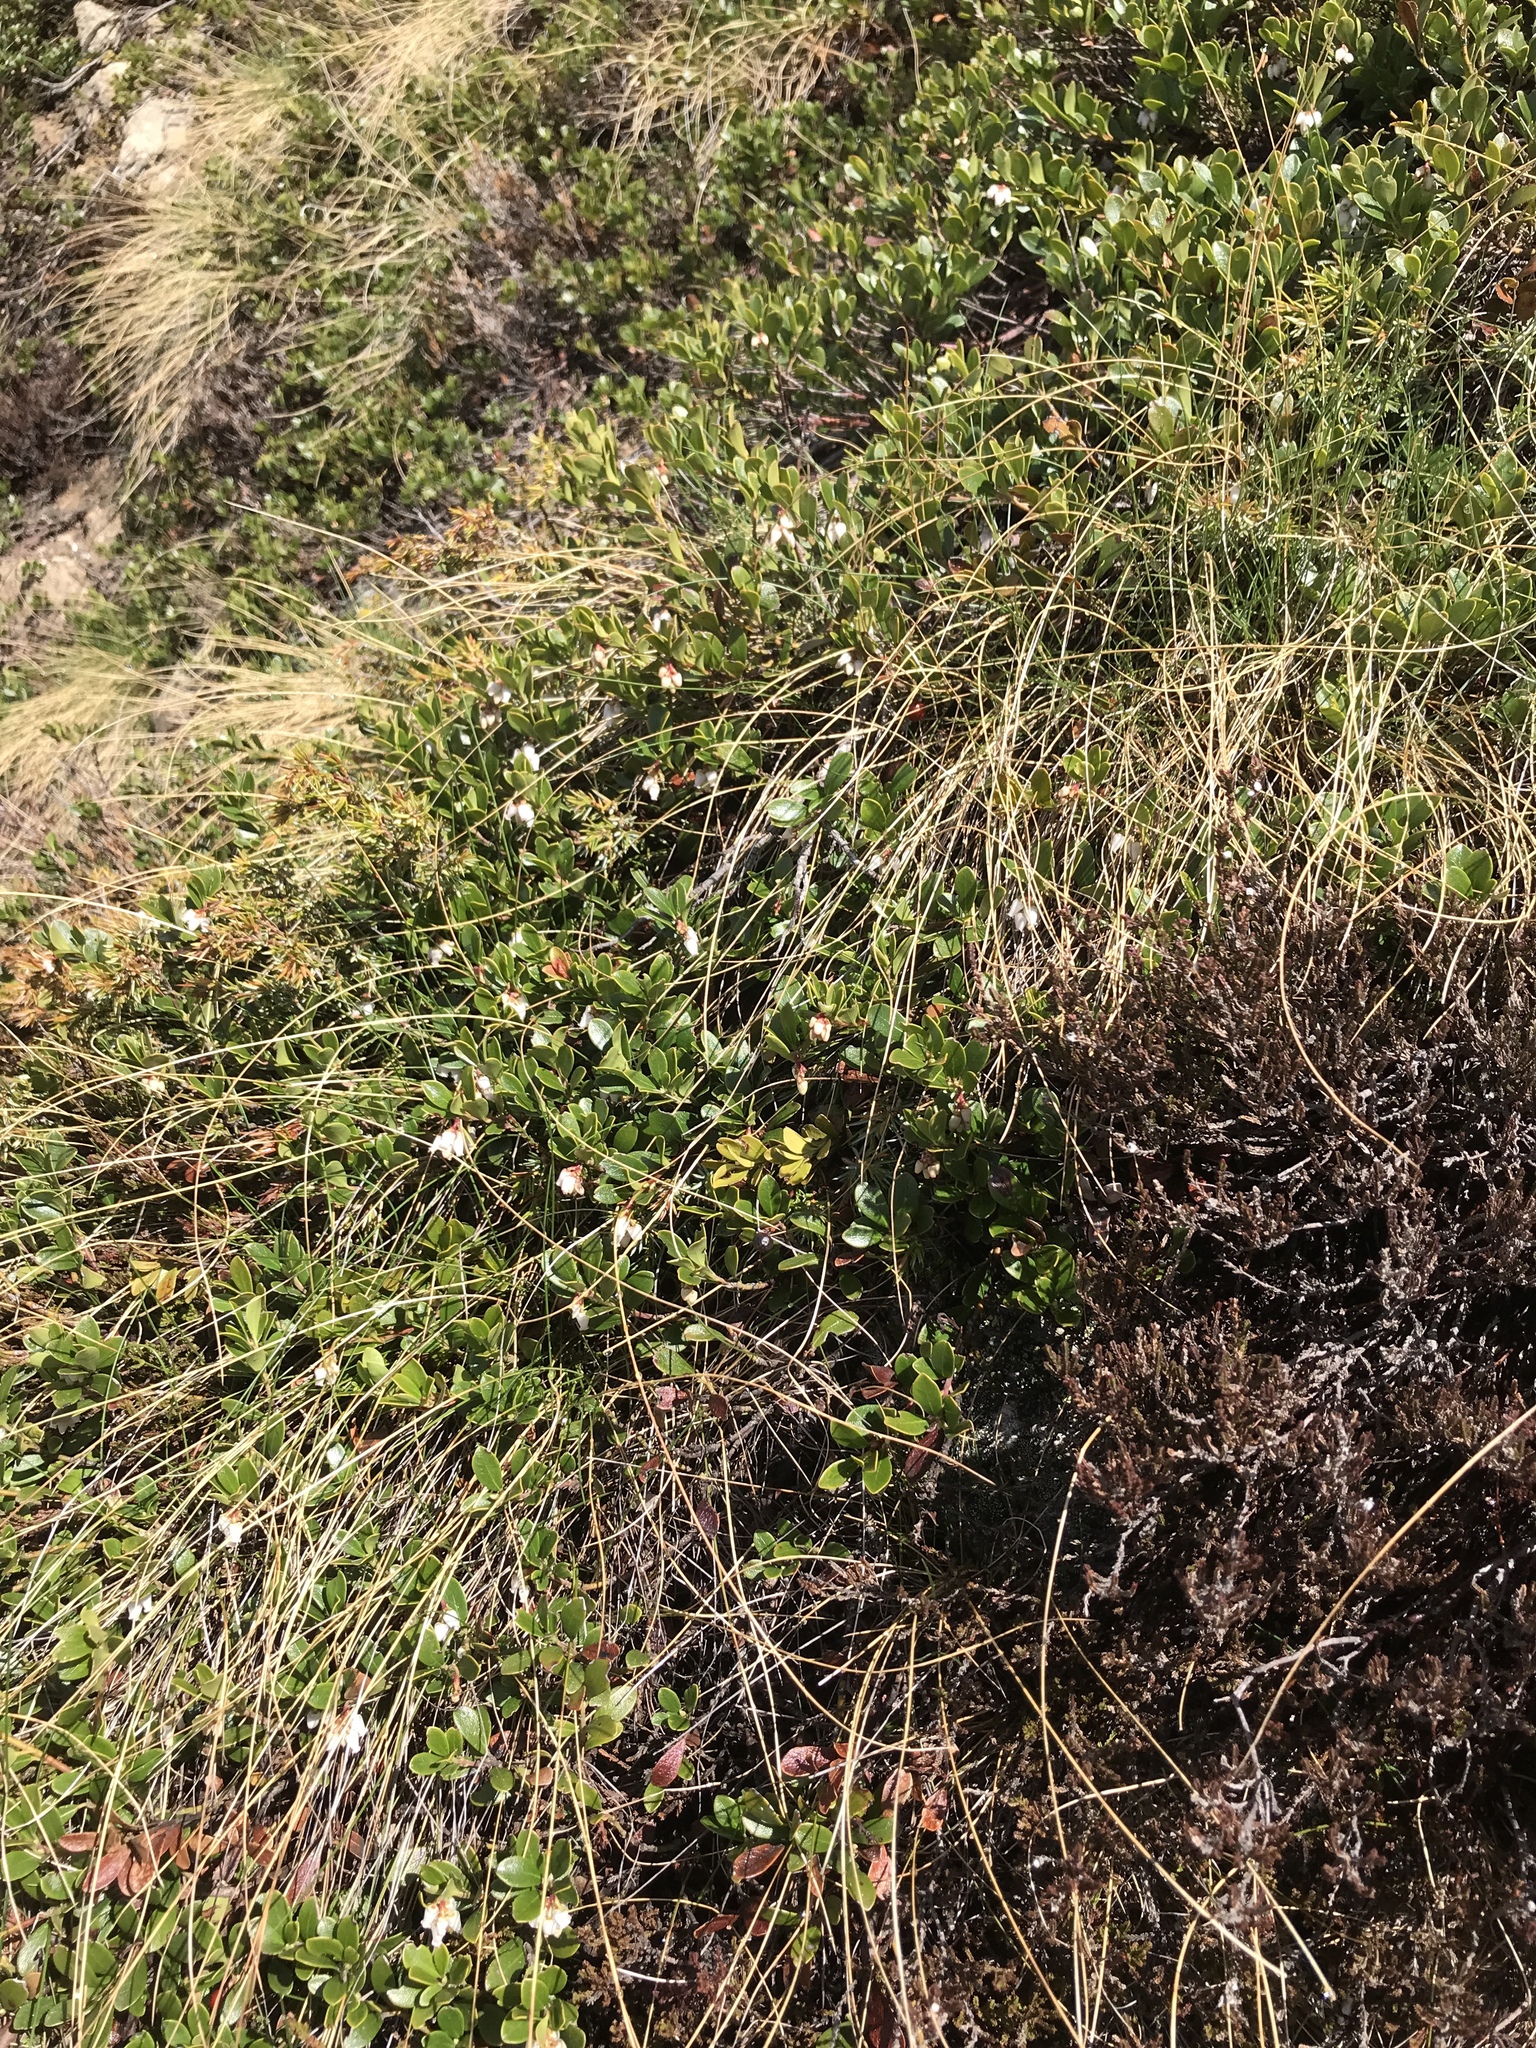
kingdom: Plantae
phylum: Tracheophyta
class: Magnoliopsida
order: Ericales
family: Ericaceae
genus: Arctostaphylos
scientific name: Arctostaphylos uva-ursi
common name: Bearberry
